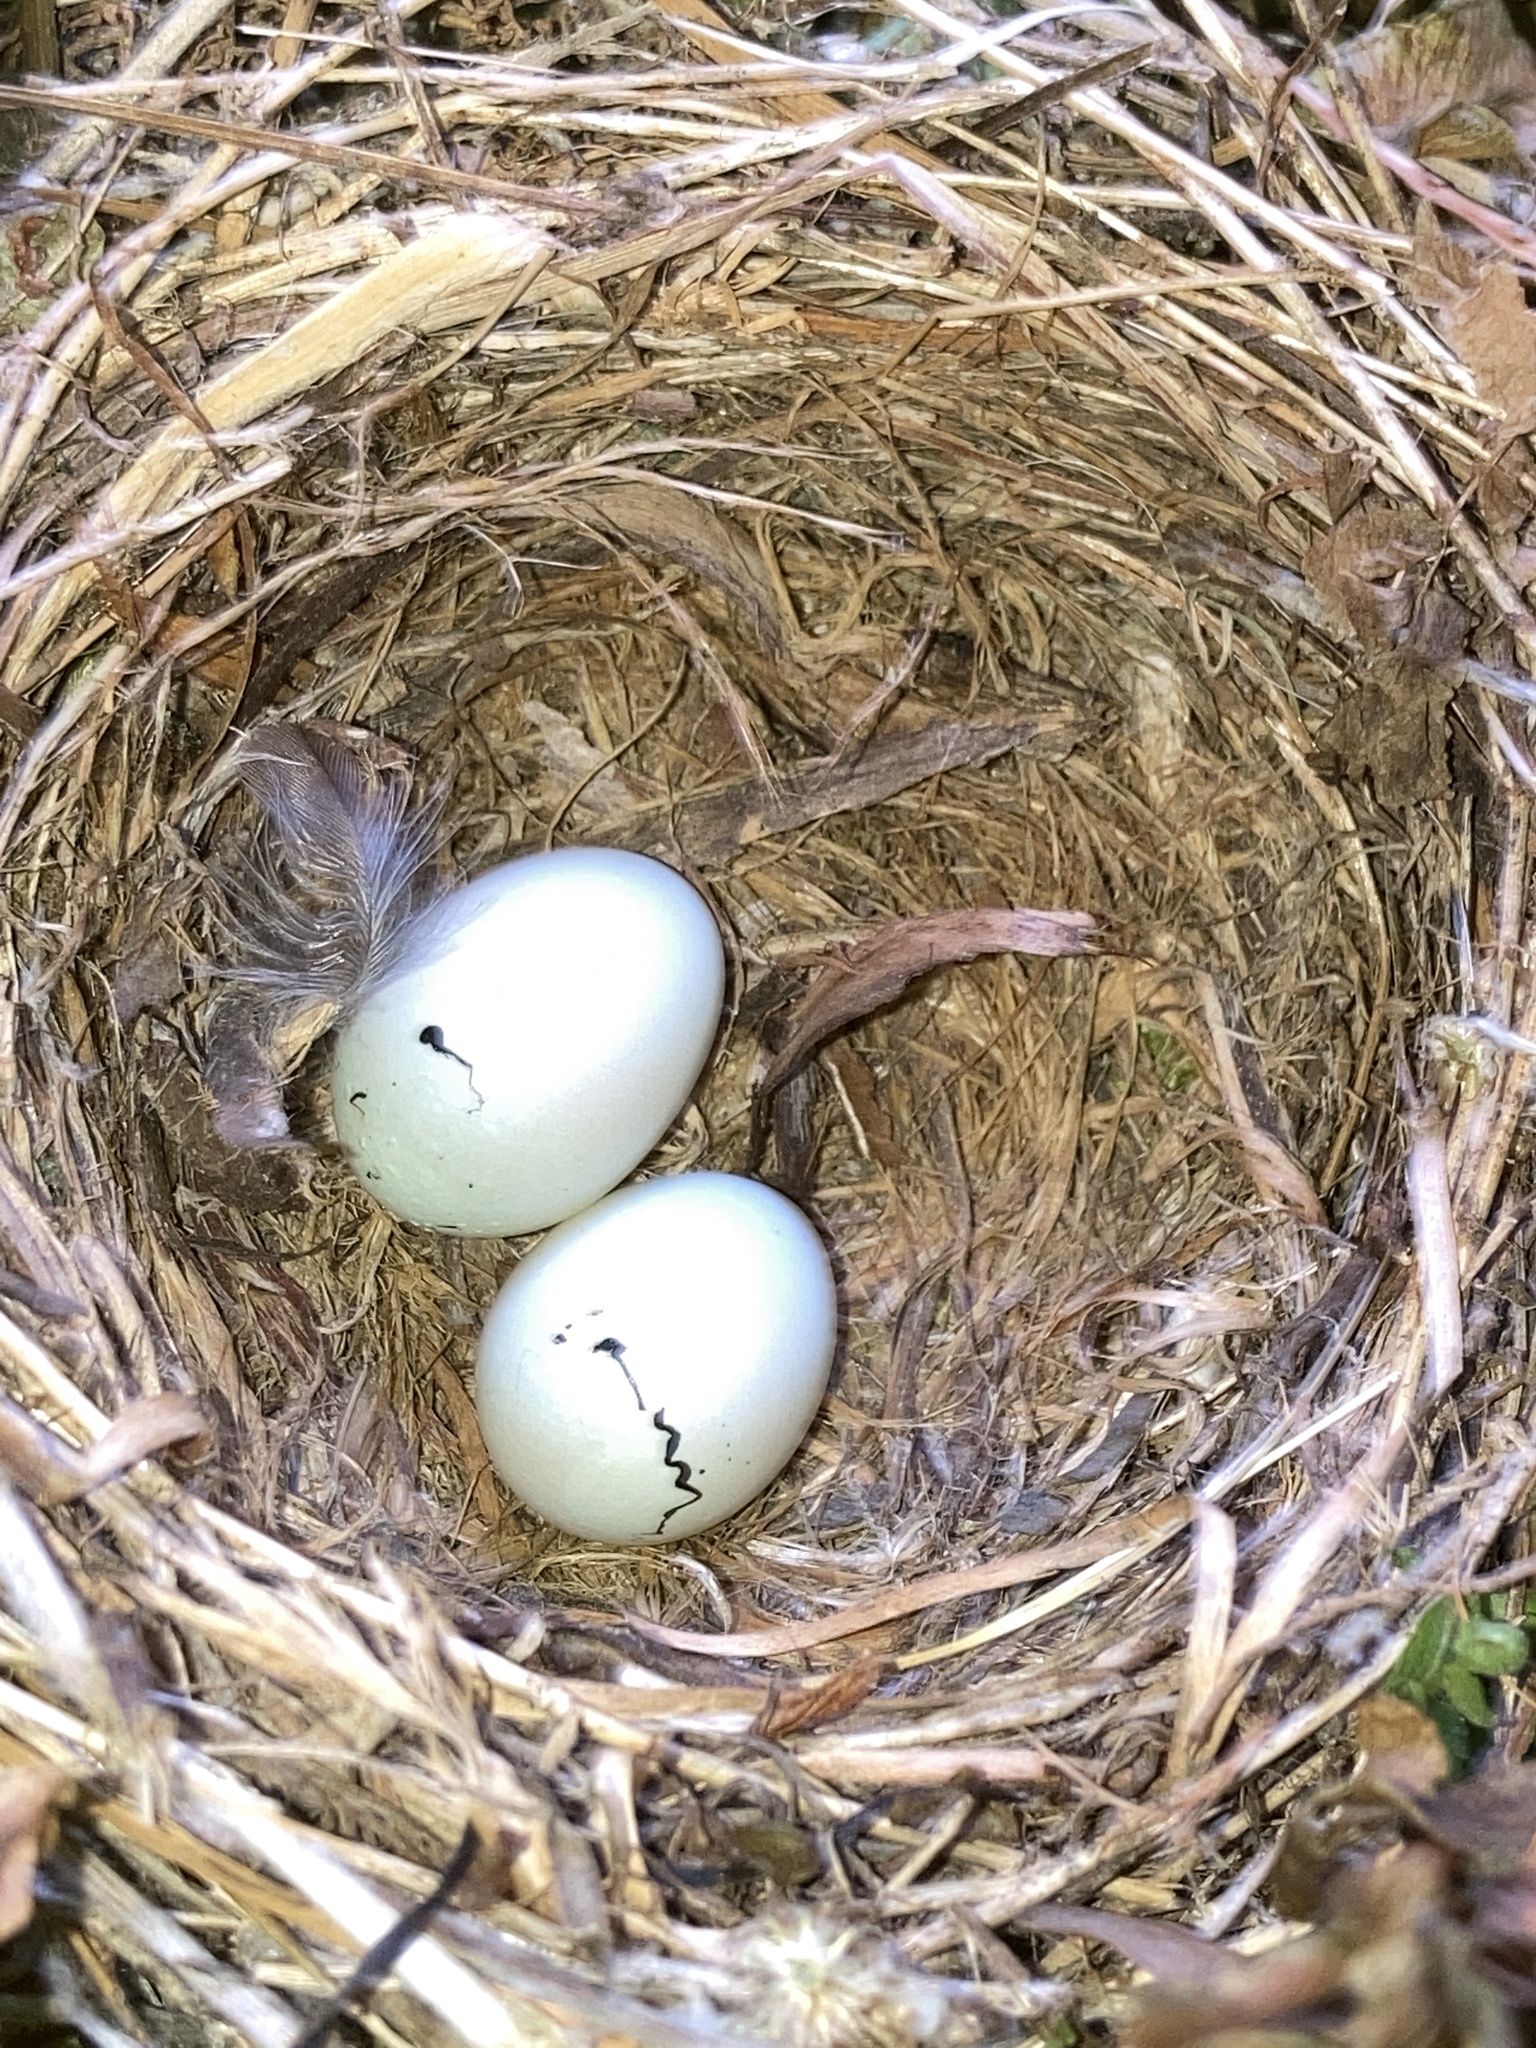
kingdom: Animalia
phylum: Chordata
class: Aves
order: Passeriformes
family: Fringillidae
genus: Haemorhous
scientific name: Haemorhous mexicanus
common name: House finch
